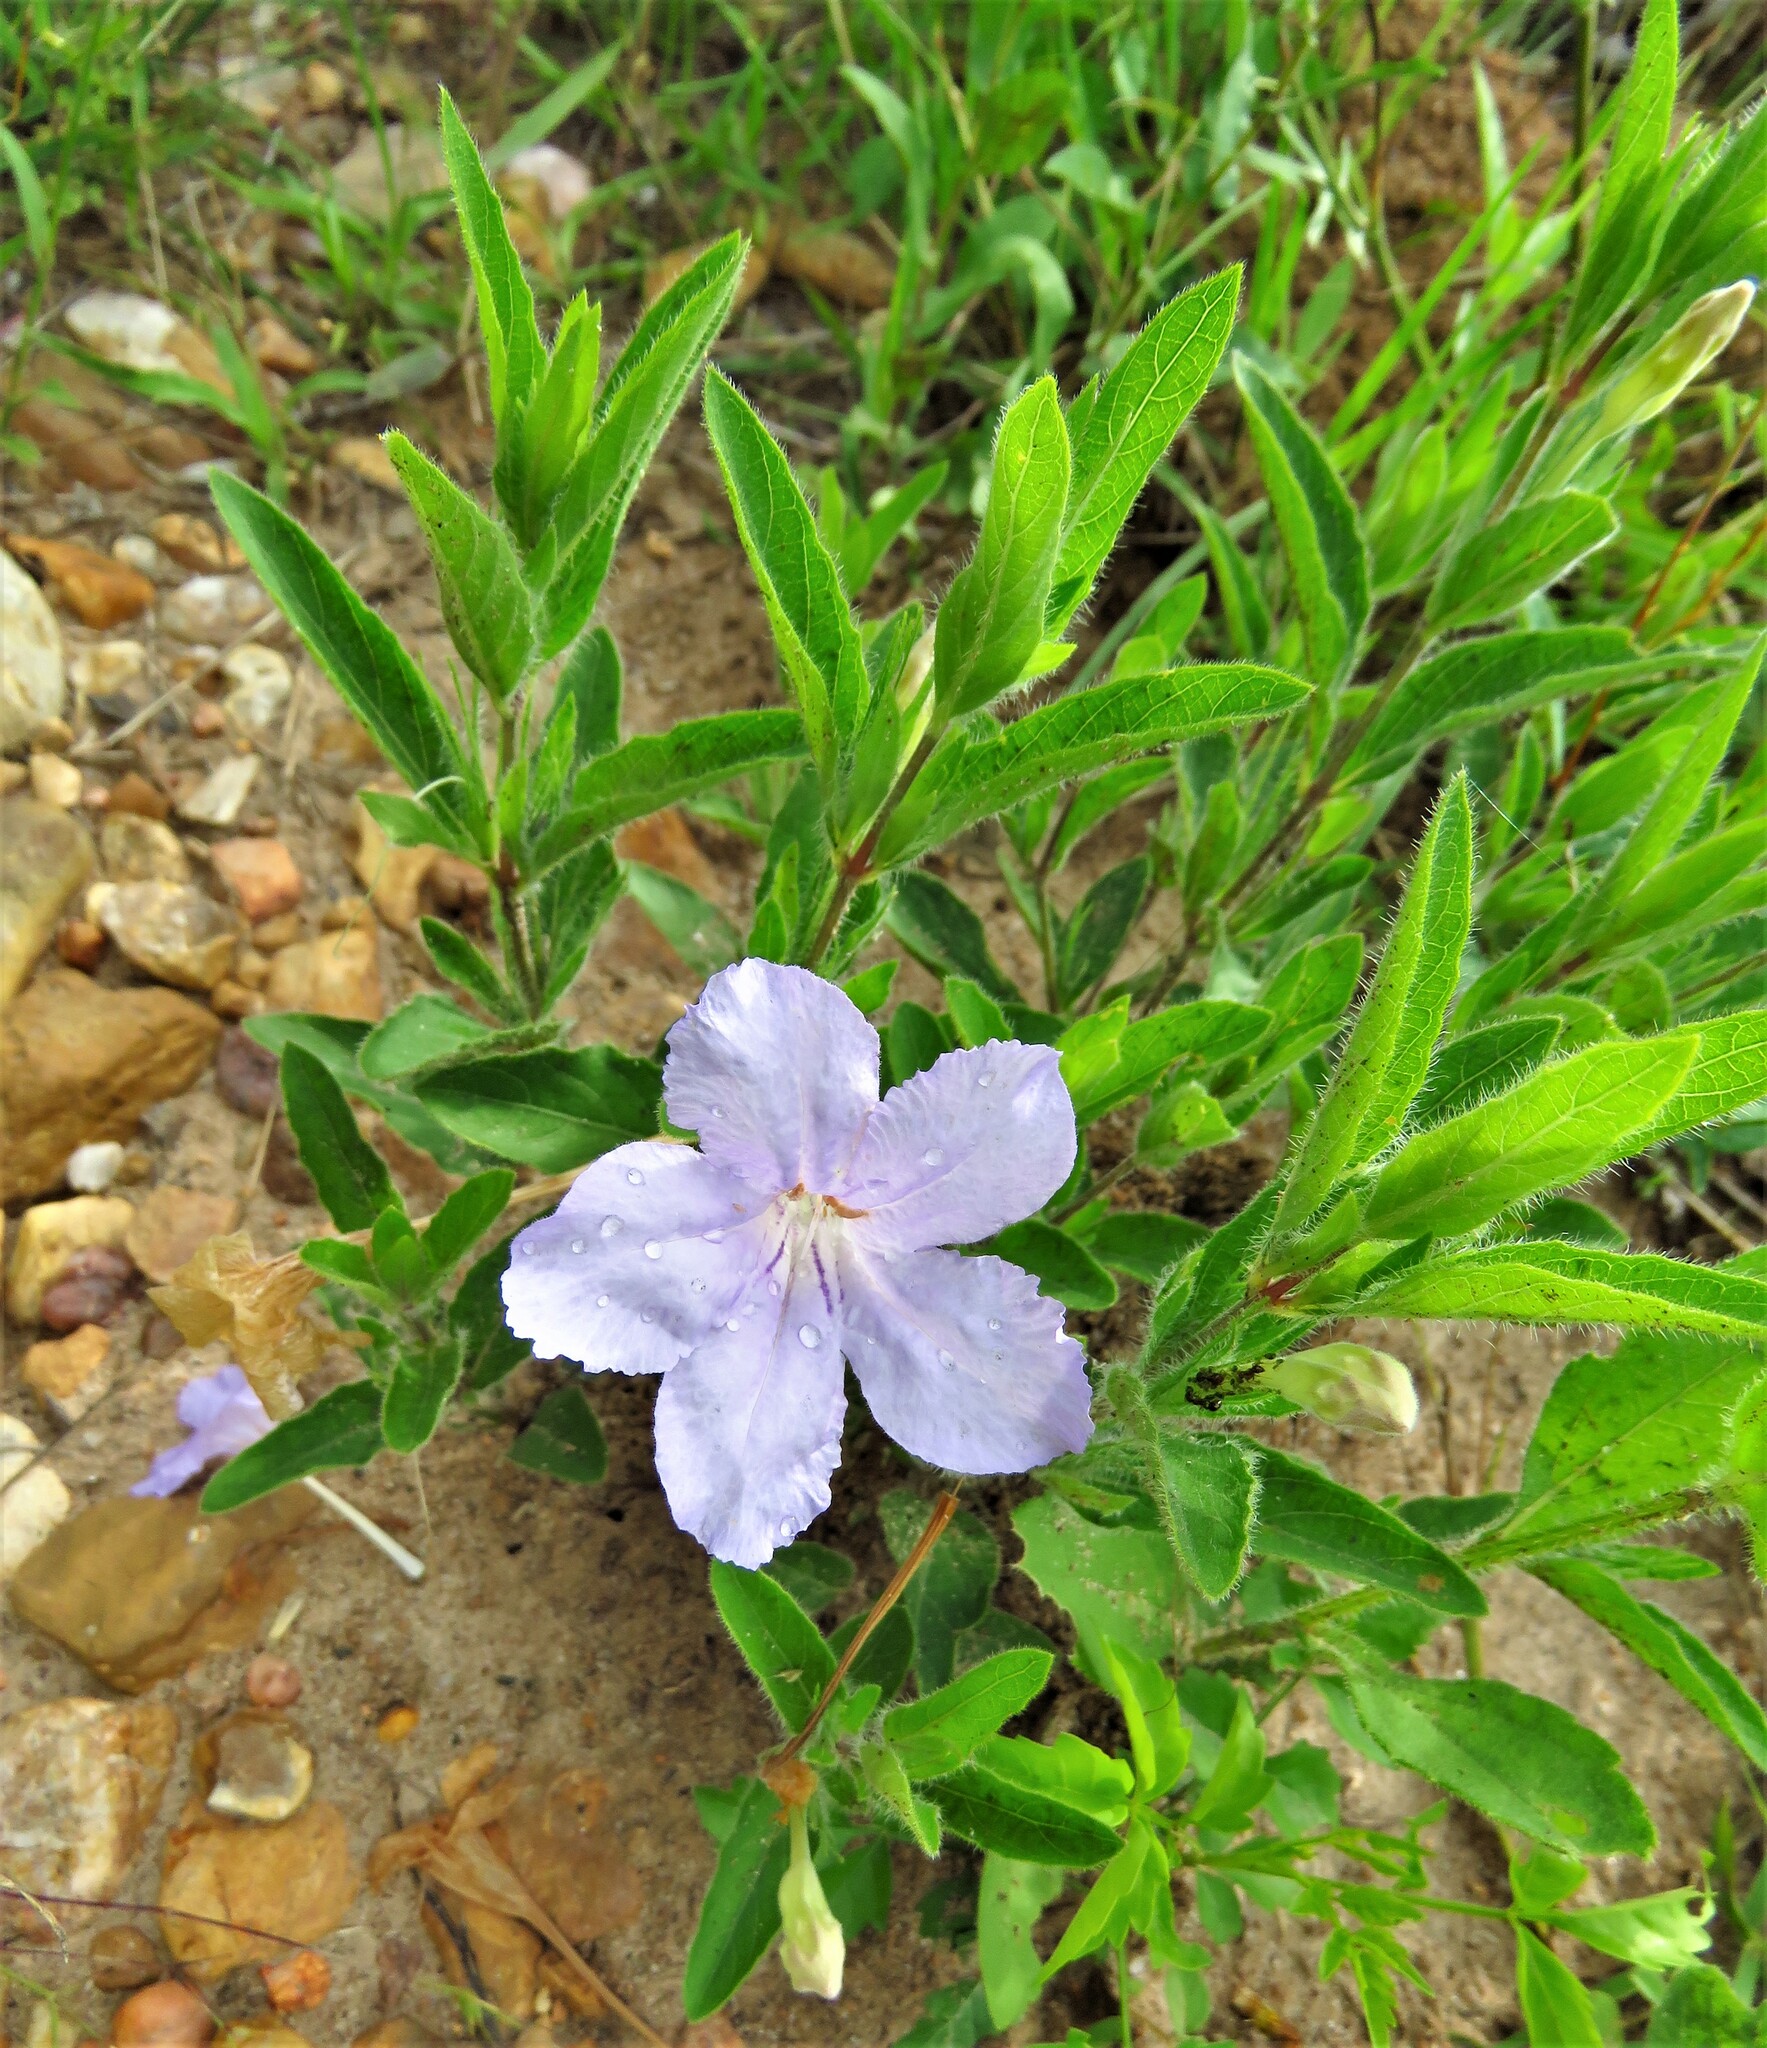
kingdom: Plantae
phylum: Tracheophyta
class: Magnoliopsida
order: Lamiales
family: Acanthaceae
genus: Ruellia
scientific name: Ruellia humilis
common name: Fringe-leaf ruellia
